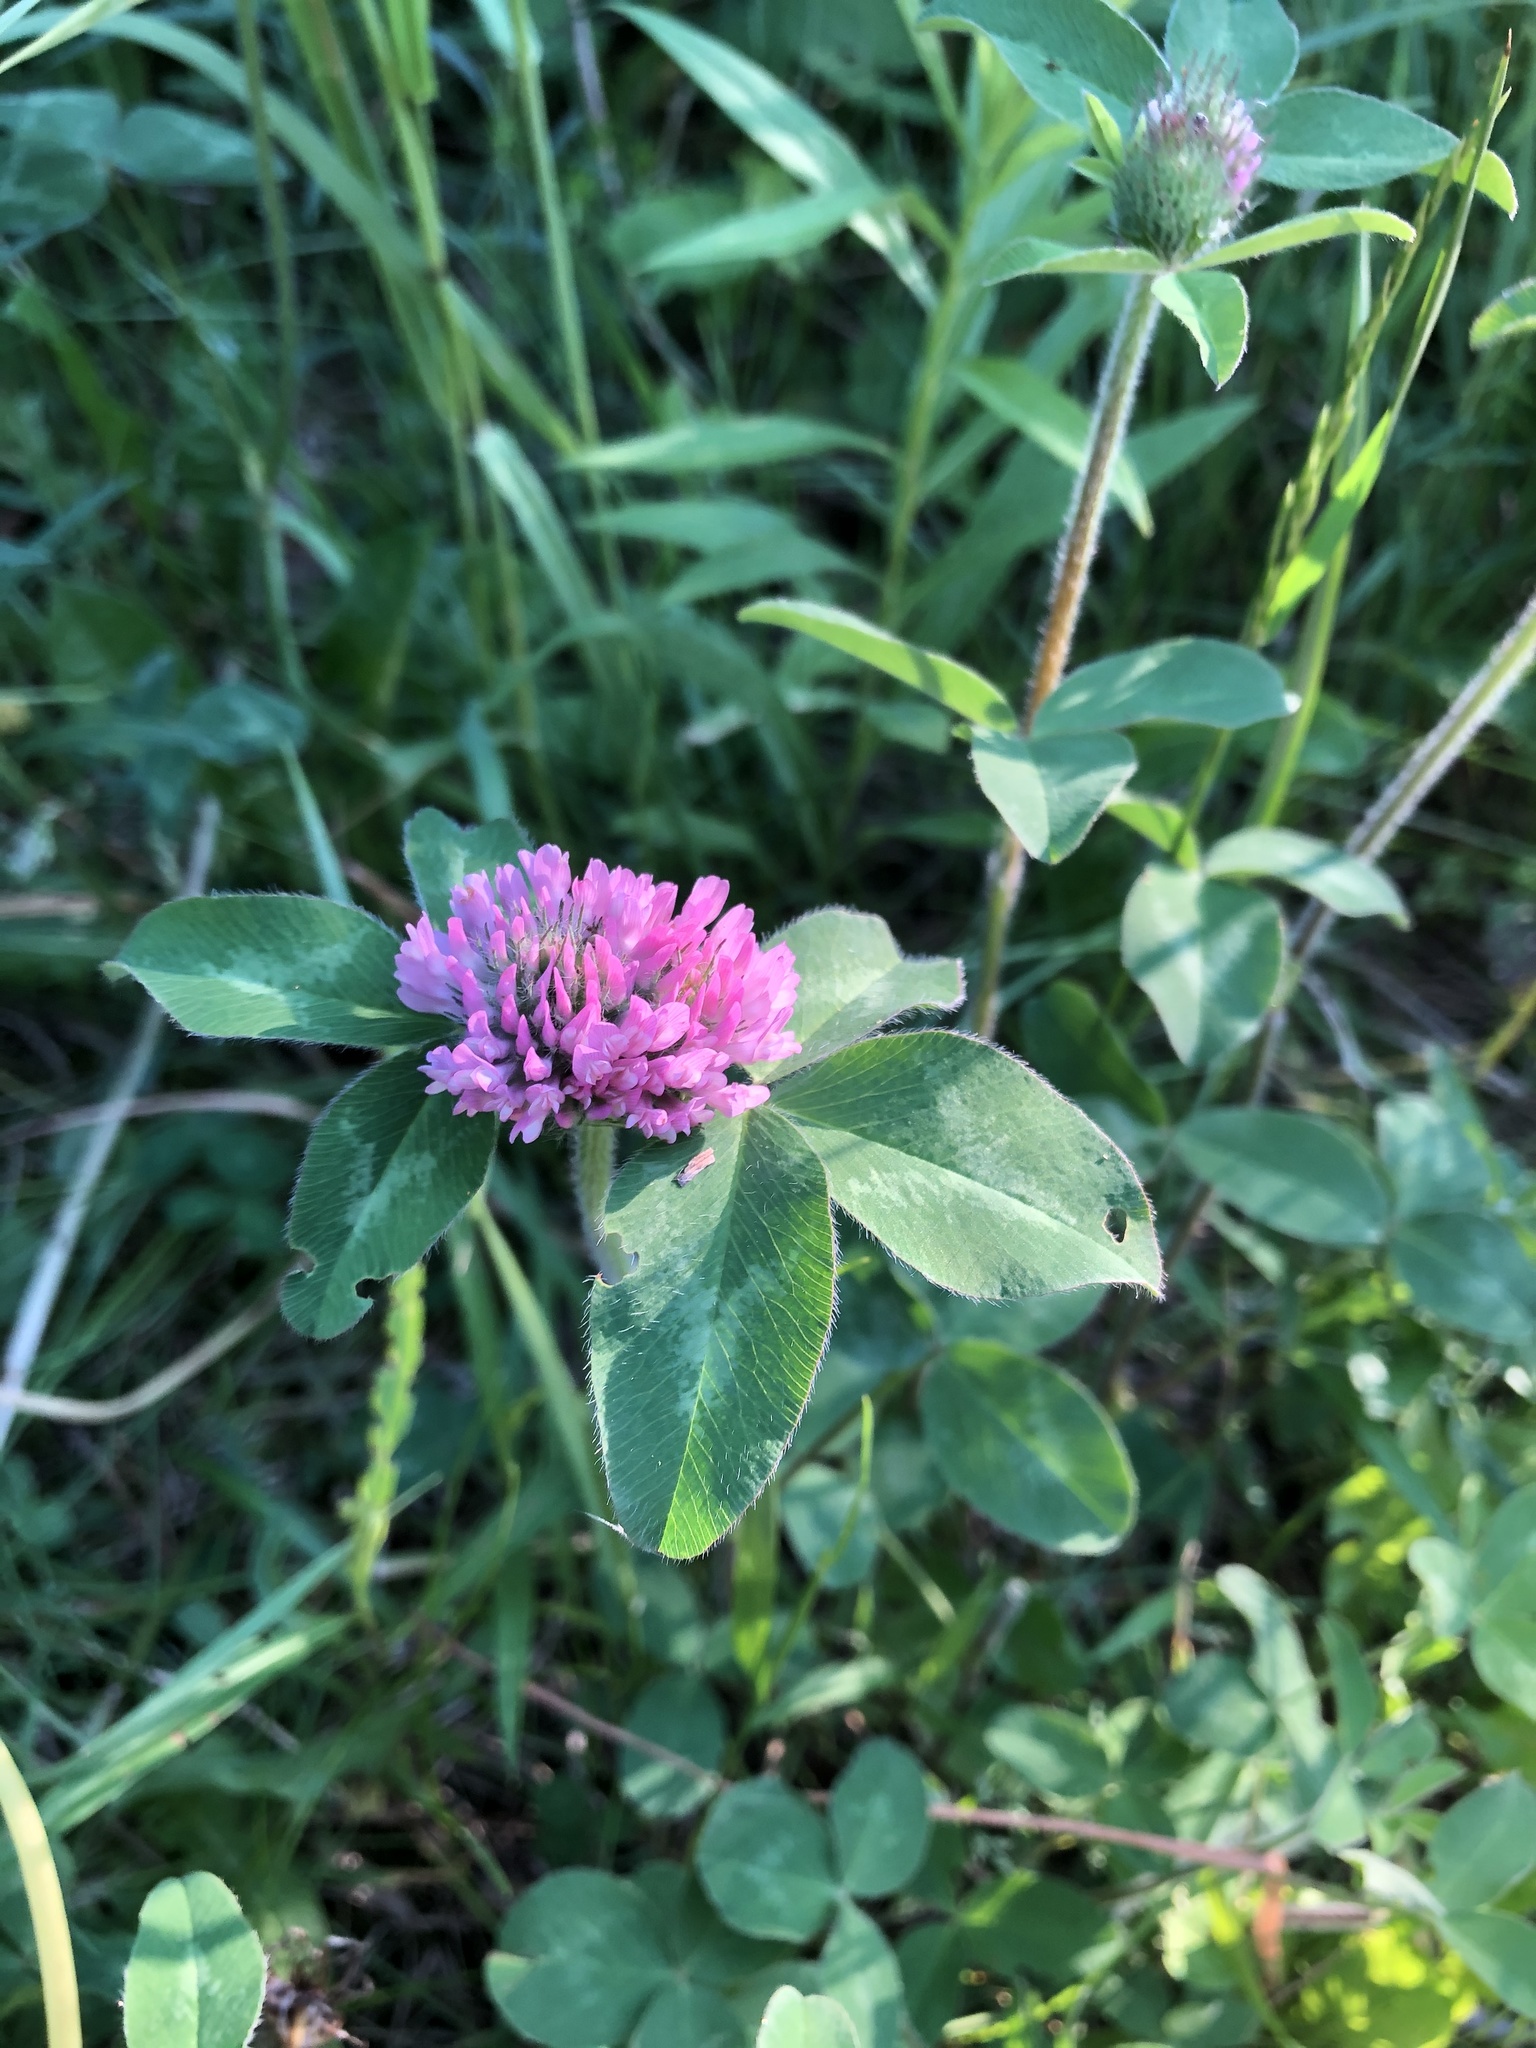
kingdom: Plantae
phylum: Tracheophyta
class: Magnoliopsida
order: Fabales
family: Fabaceae
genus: Trifolium
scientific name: Trifolium pratense
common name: Red clover
